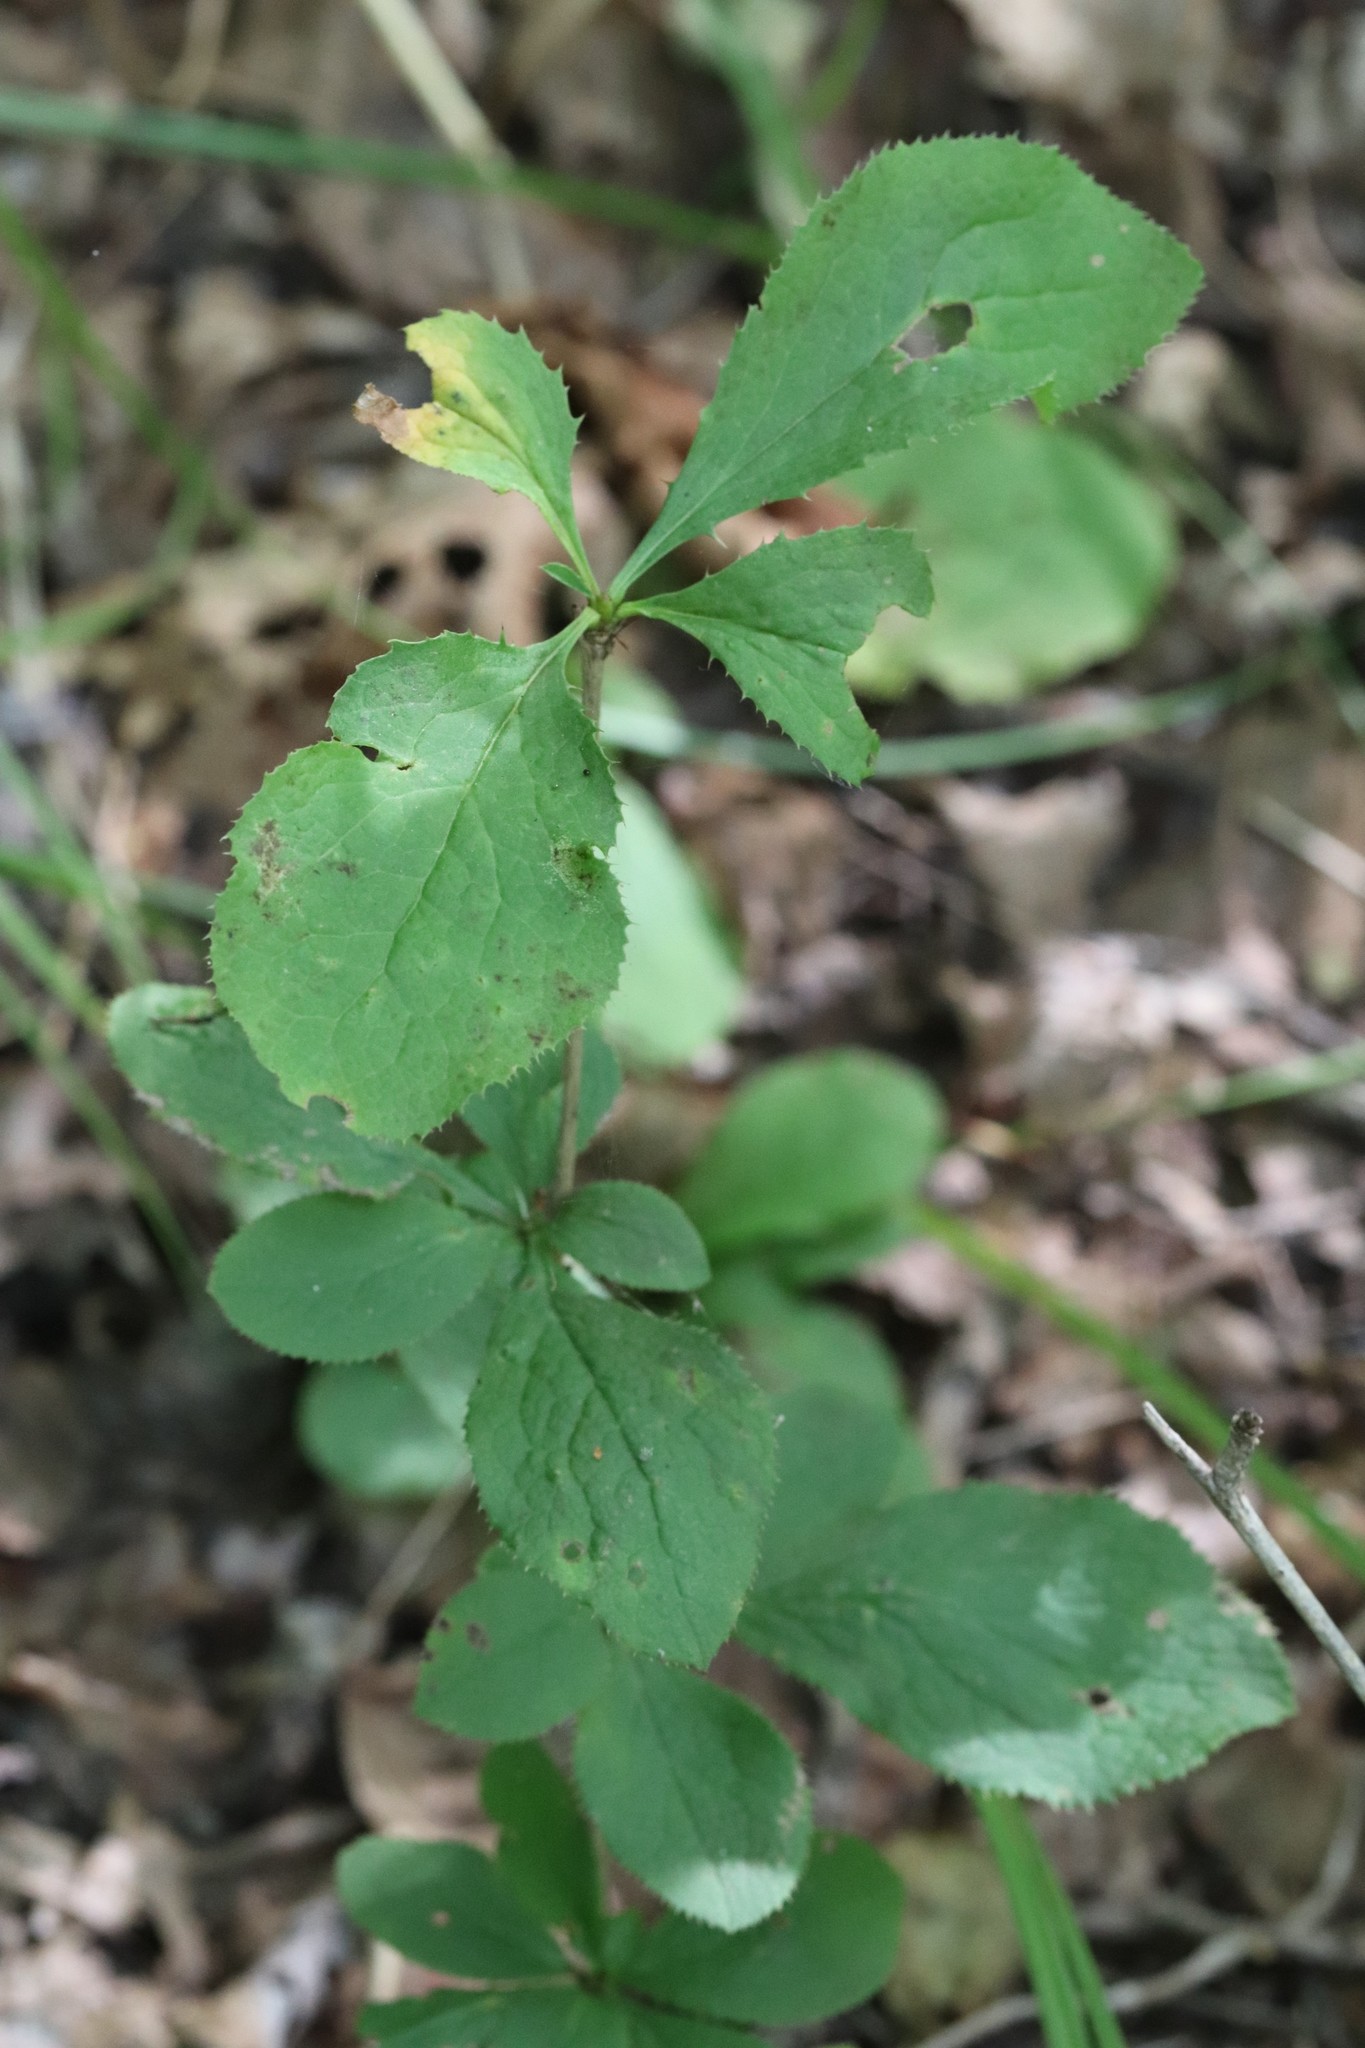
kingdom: Plantae
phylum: Tracheophyta
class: Magnoliopsida
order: Ranunculales
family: Berberidaceae
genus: Berberis
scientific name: Berberis amurensis
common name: Amur barberry
